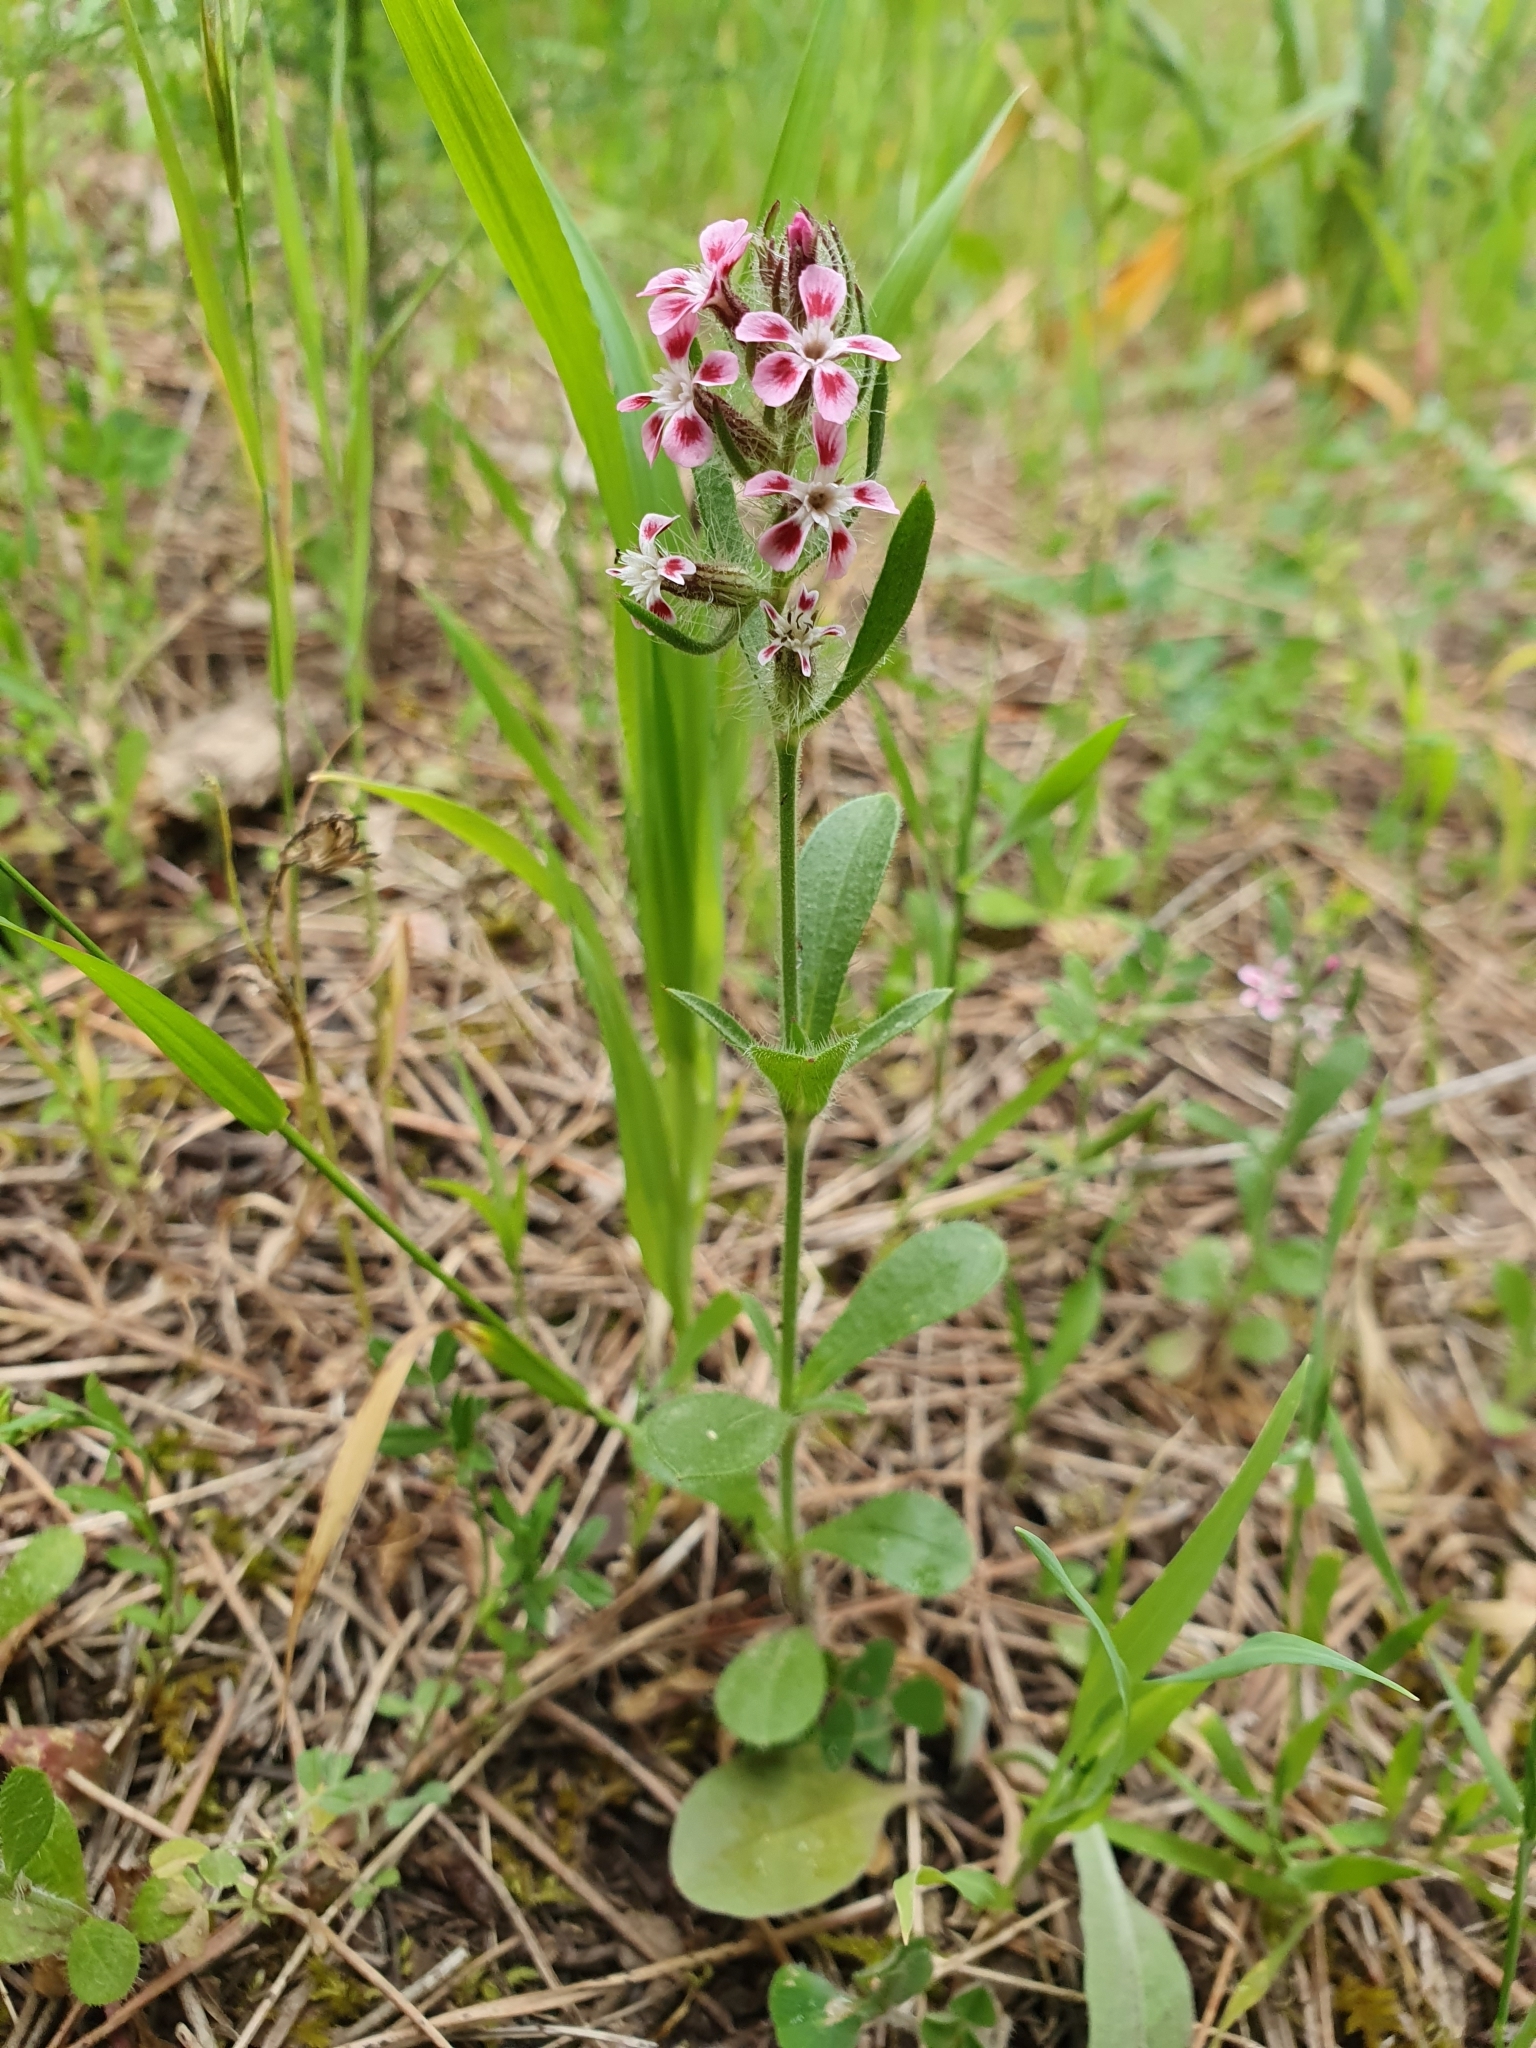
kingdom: Plantae
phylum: Tracheophyta
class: Magnoliopsida
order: Caryophyllales
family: Caryophyllaceae
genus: Silene
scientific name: Silene gallica
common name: Small-flowered catchfly
